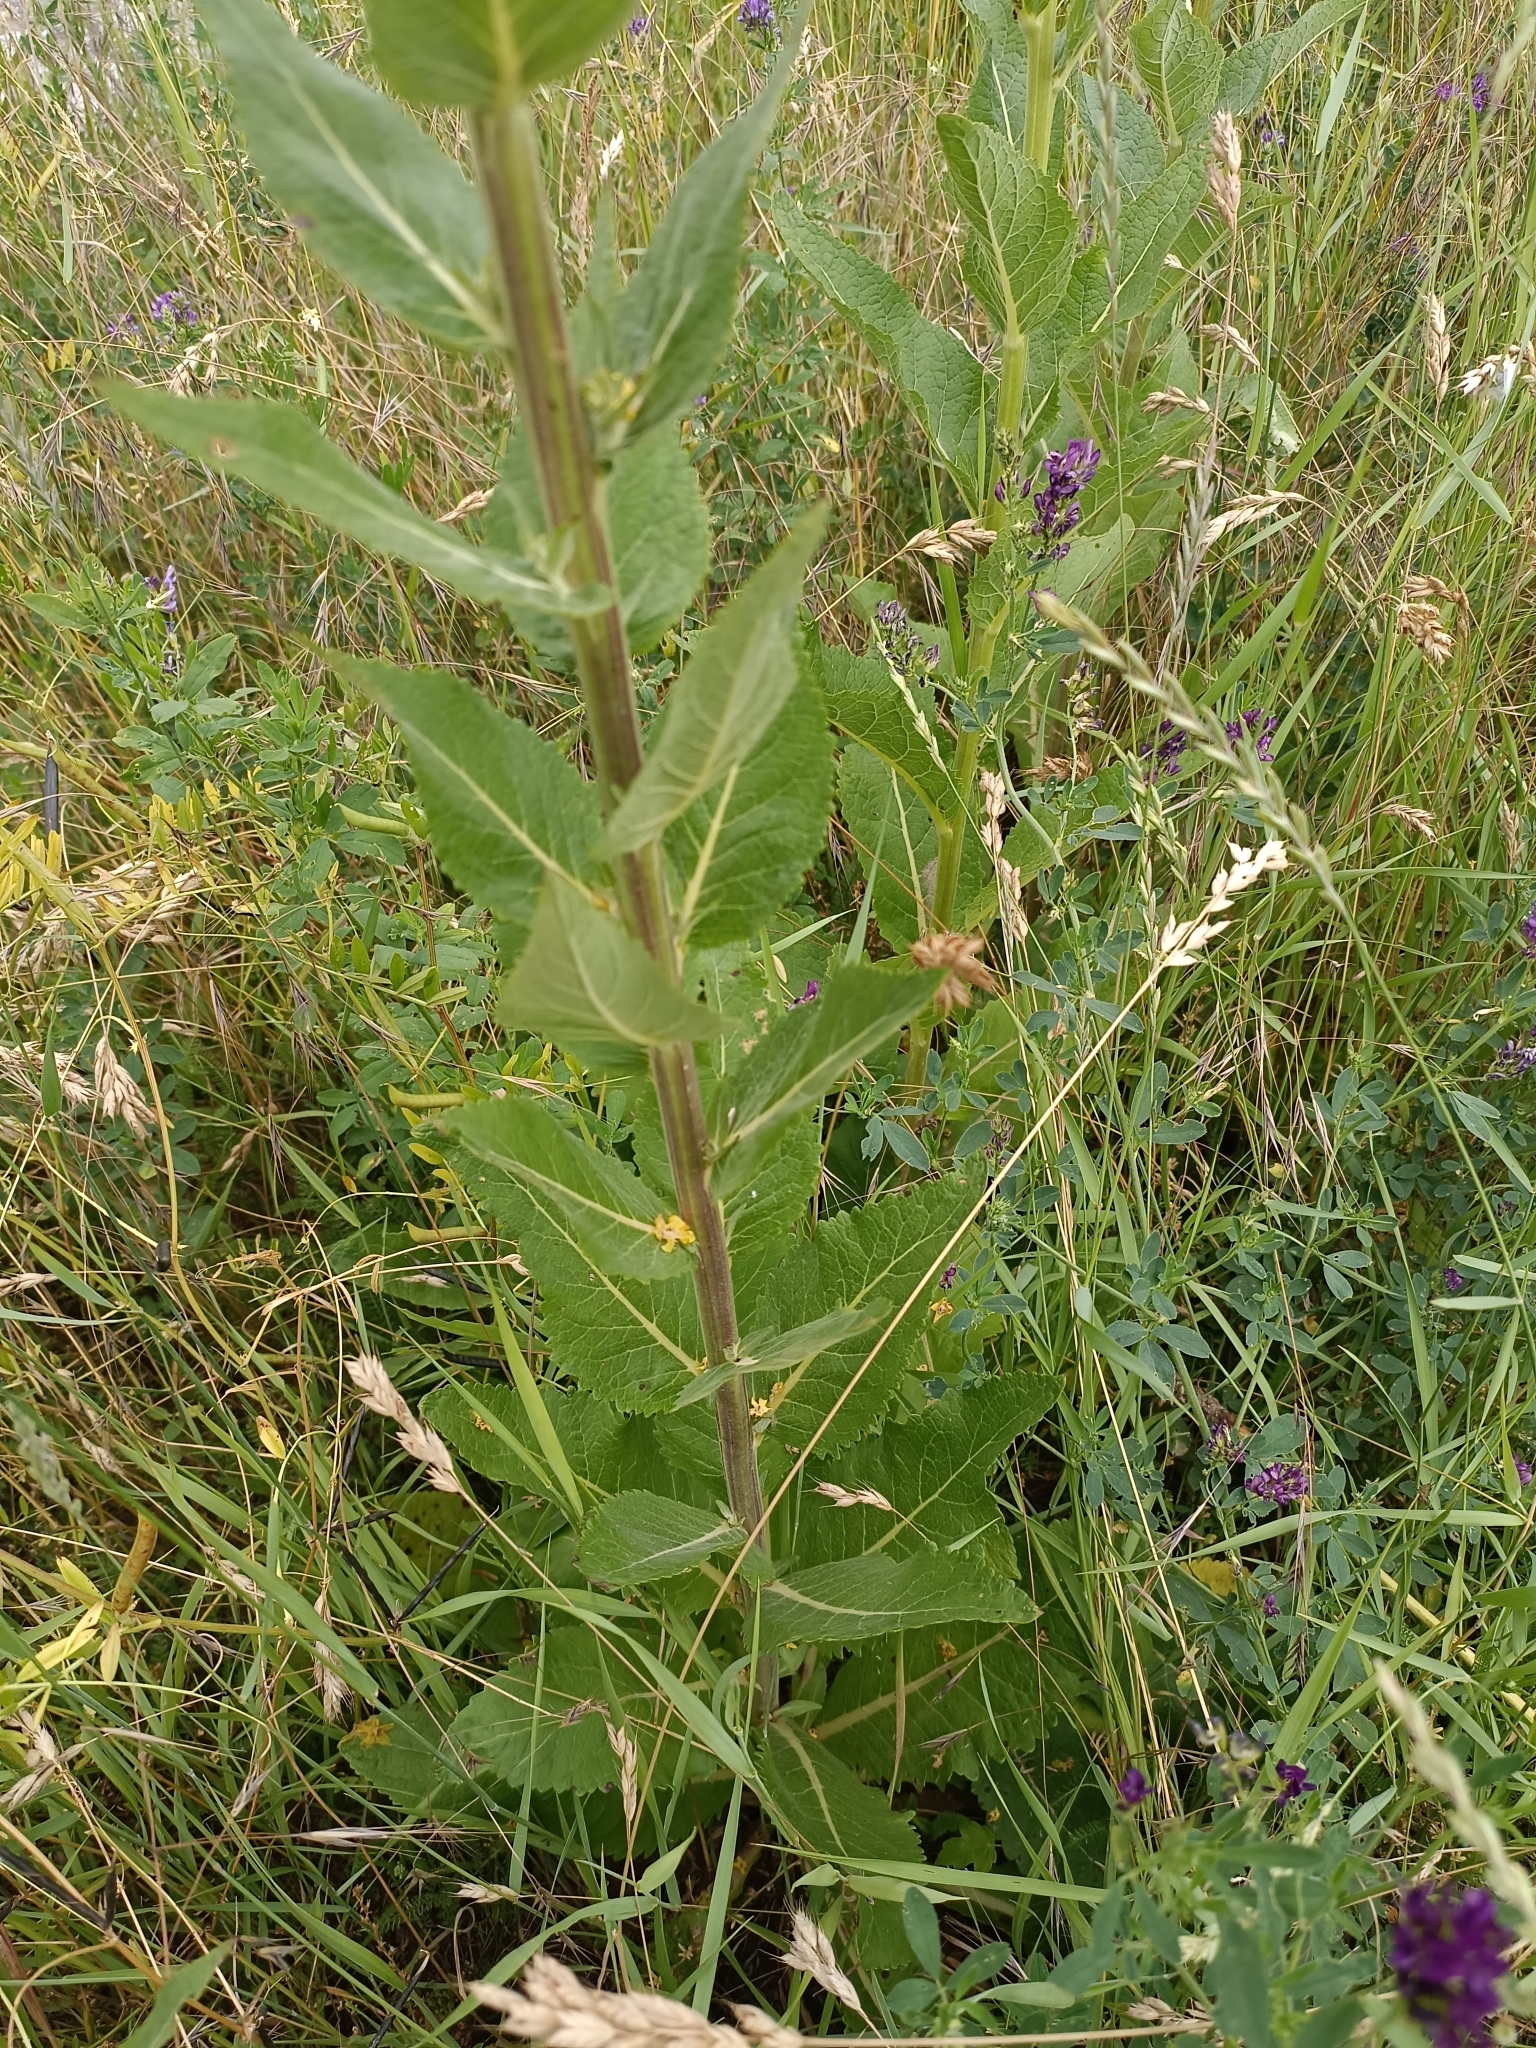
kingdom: Plantae
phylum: Tracheophyta
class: Magnoliopsida
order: Lamiales
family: Scrophulariaceae
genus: Verbascum
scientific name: Verbascum lychnitis
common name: White mullein
